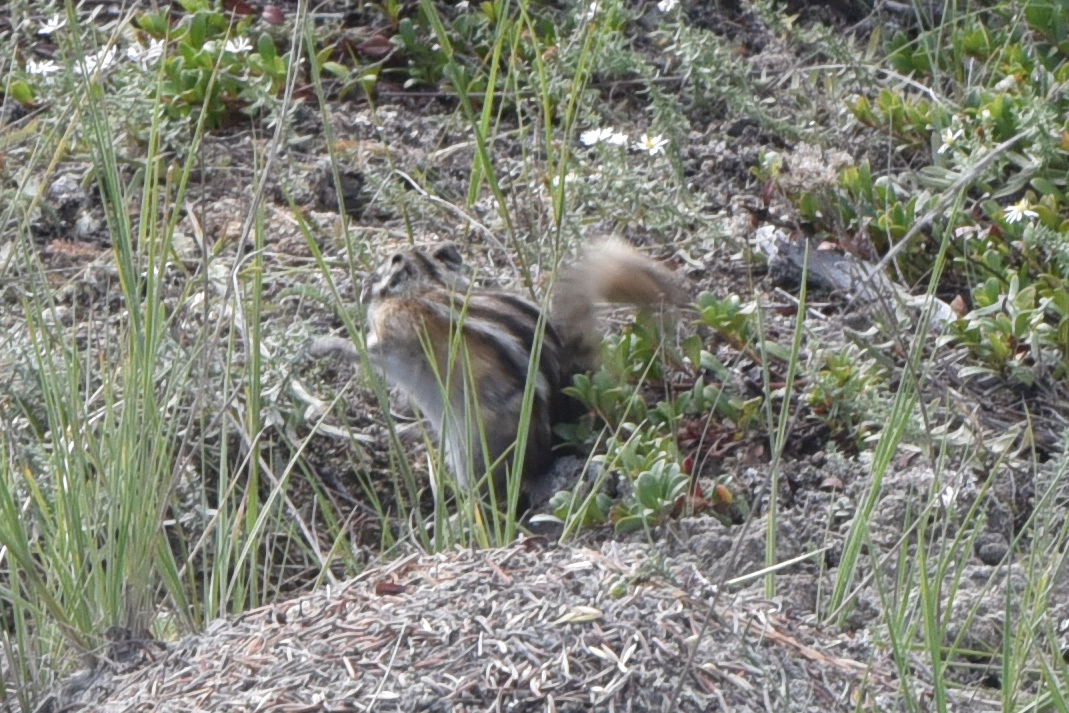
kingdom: Animalia
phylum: Chordata
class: Mammalia
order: Rodentia
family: Sciuridae
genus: Tamias
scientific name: Tamias minimus
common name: Least chipmunk
